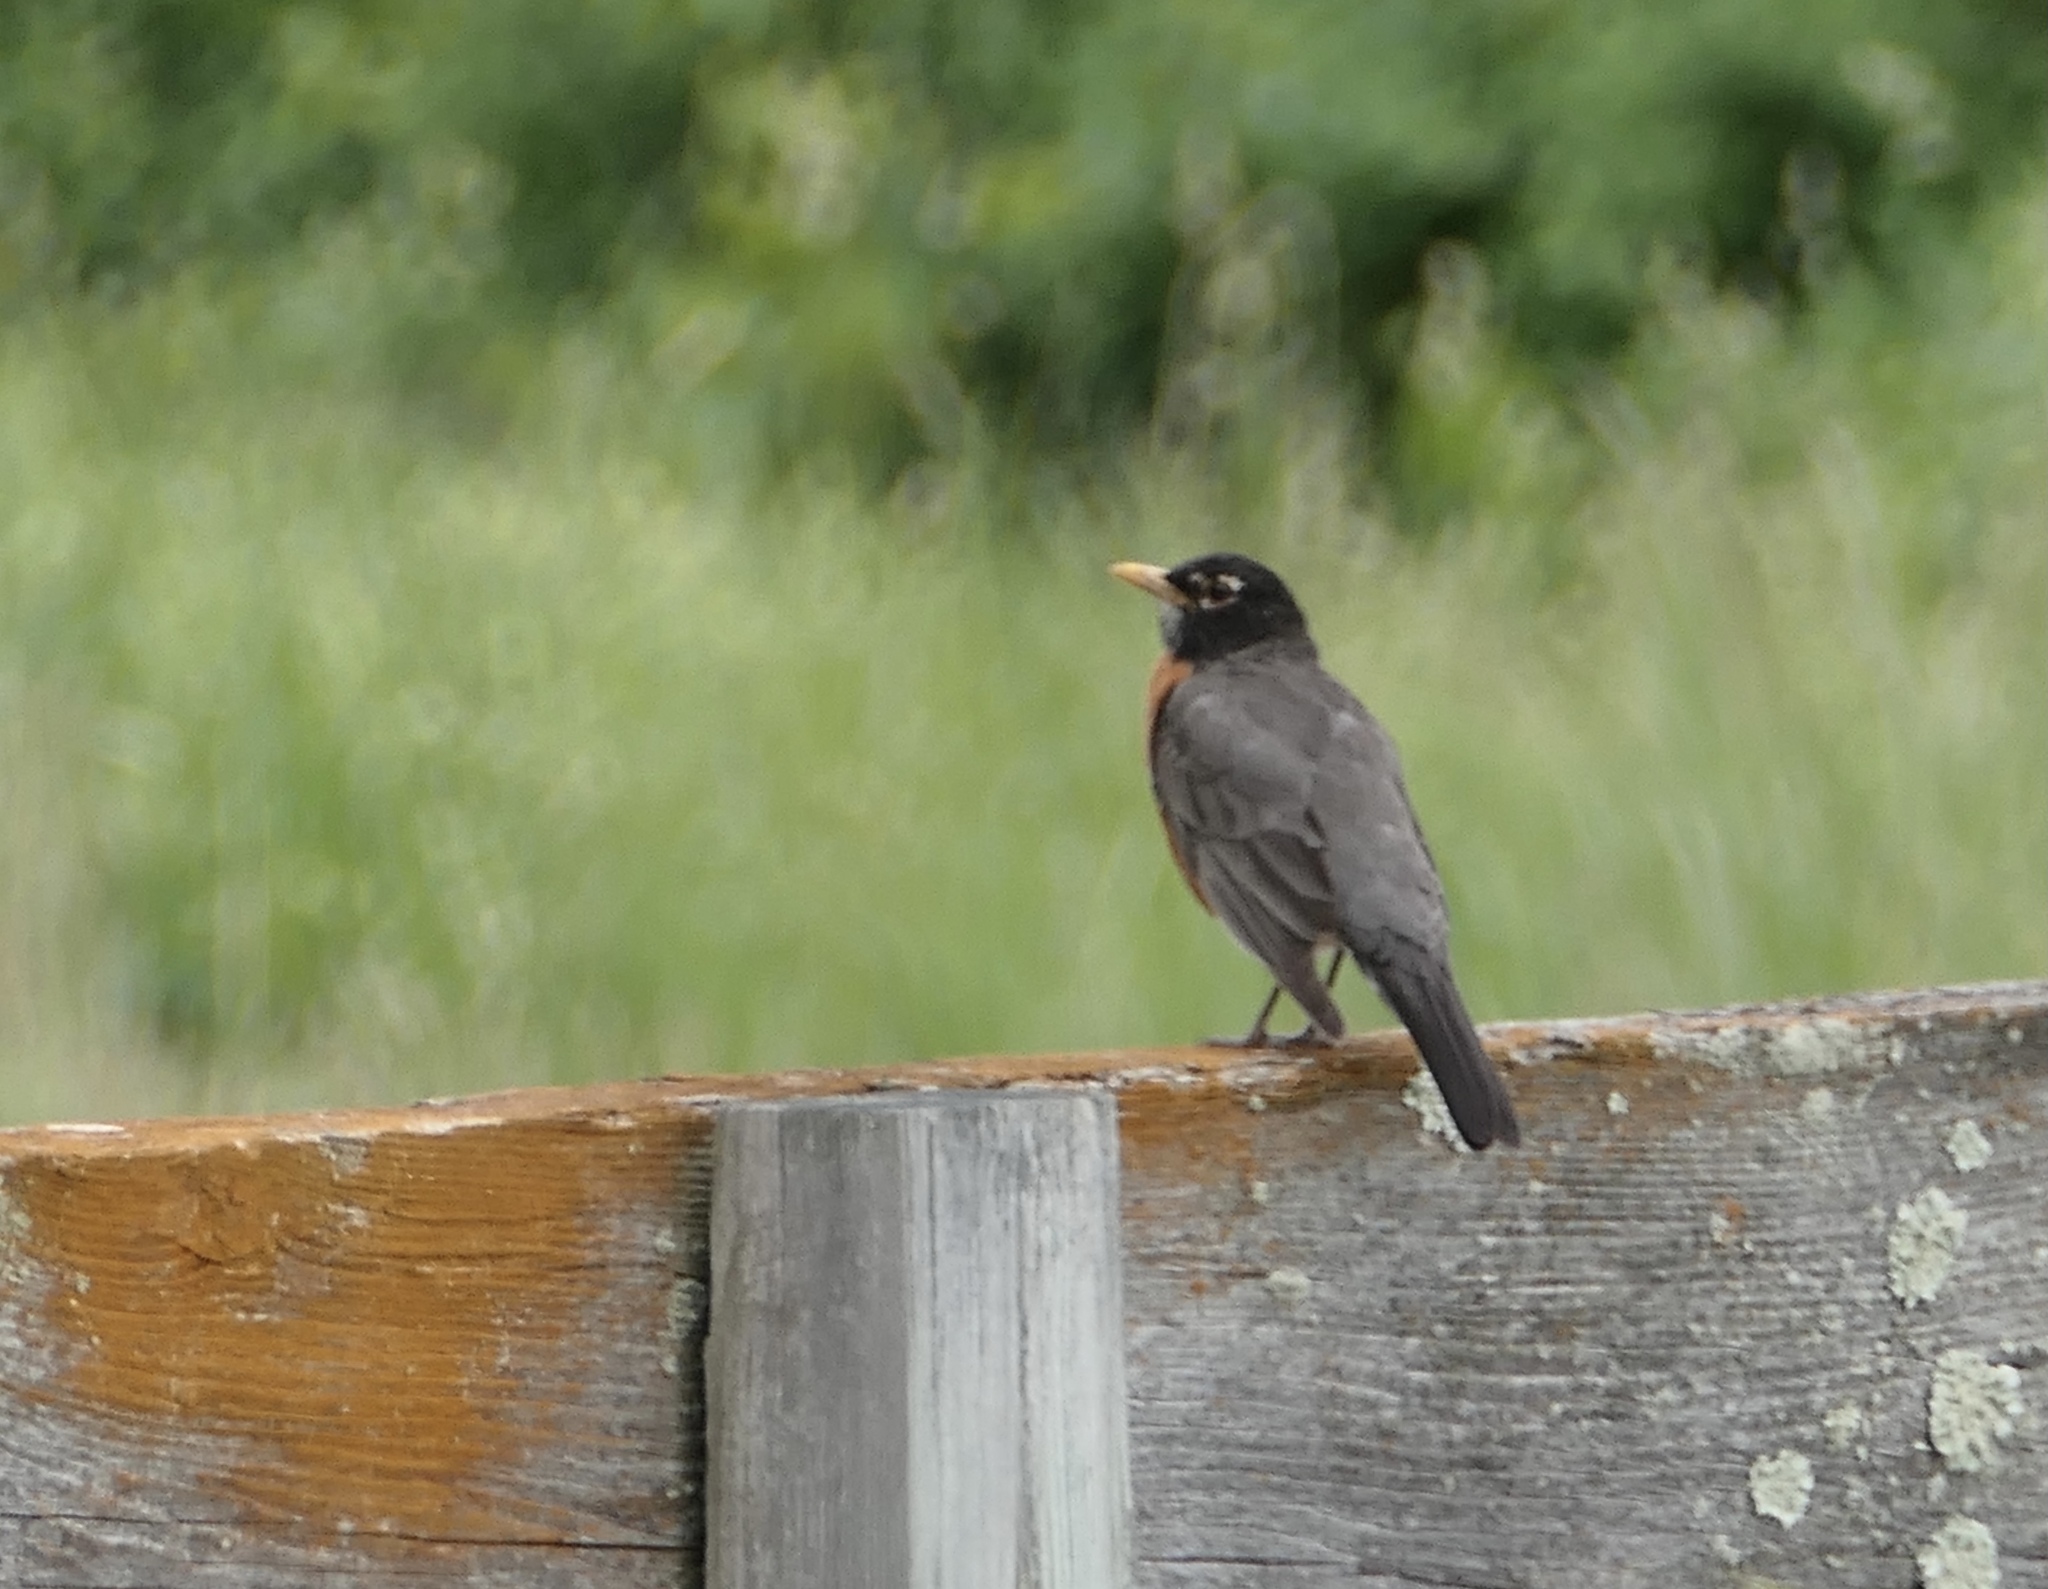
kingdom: Animalia
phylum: Chordata
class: Aves
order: Passeriformes
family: Turdidae
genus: Turdus
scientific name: Turdus migratorius
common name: American robin
